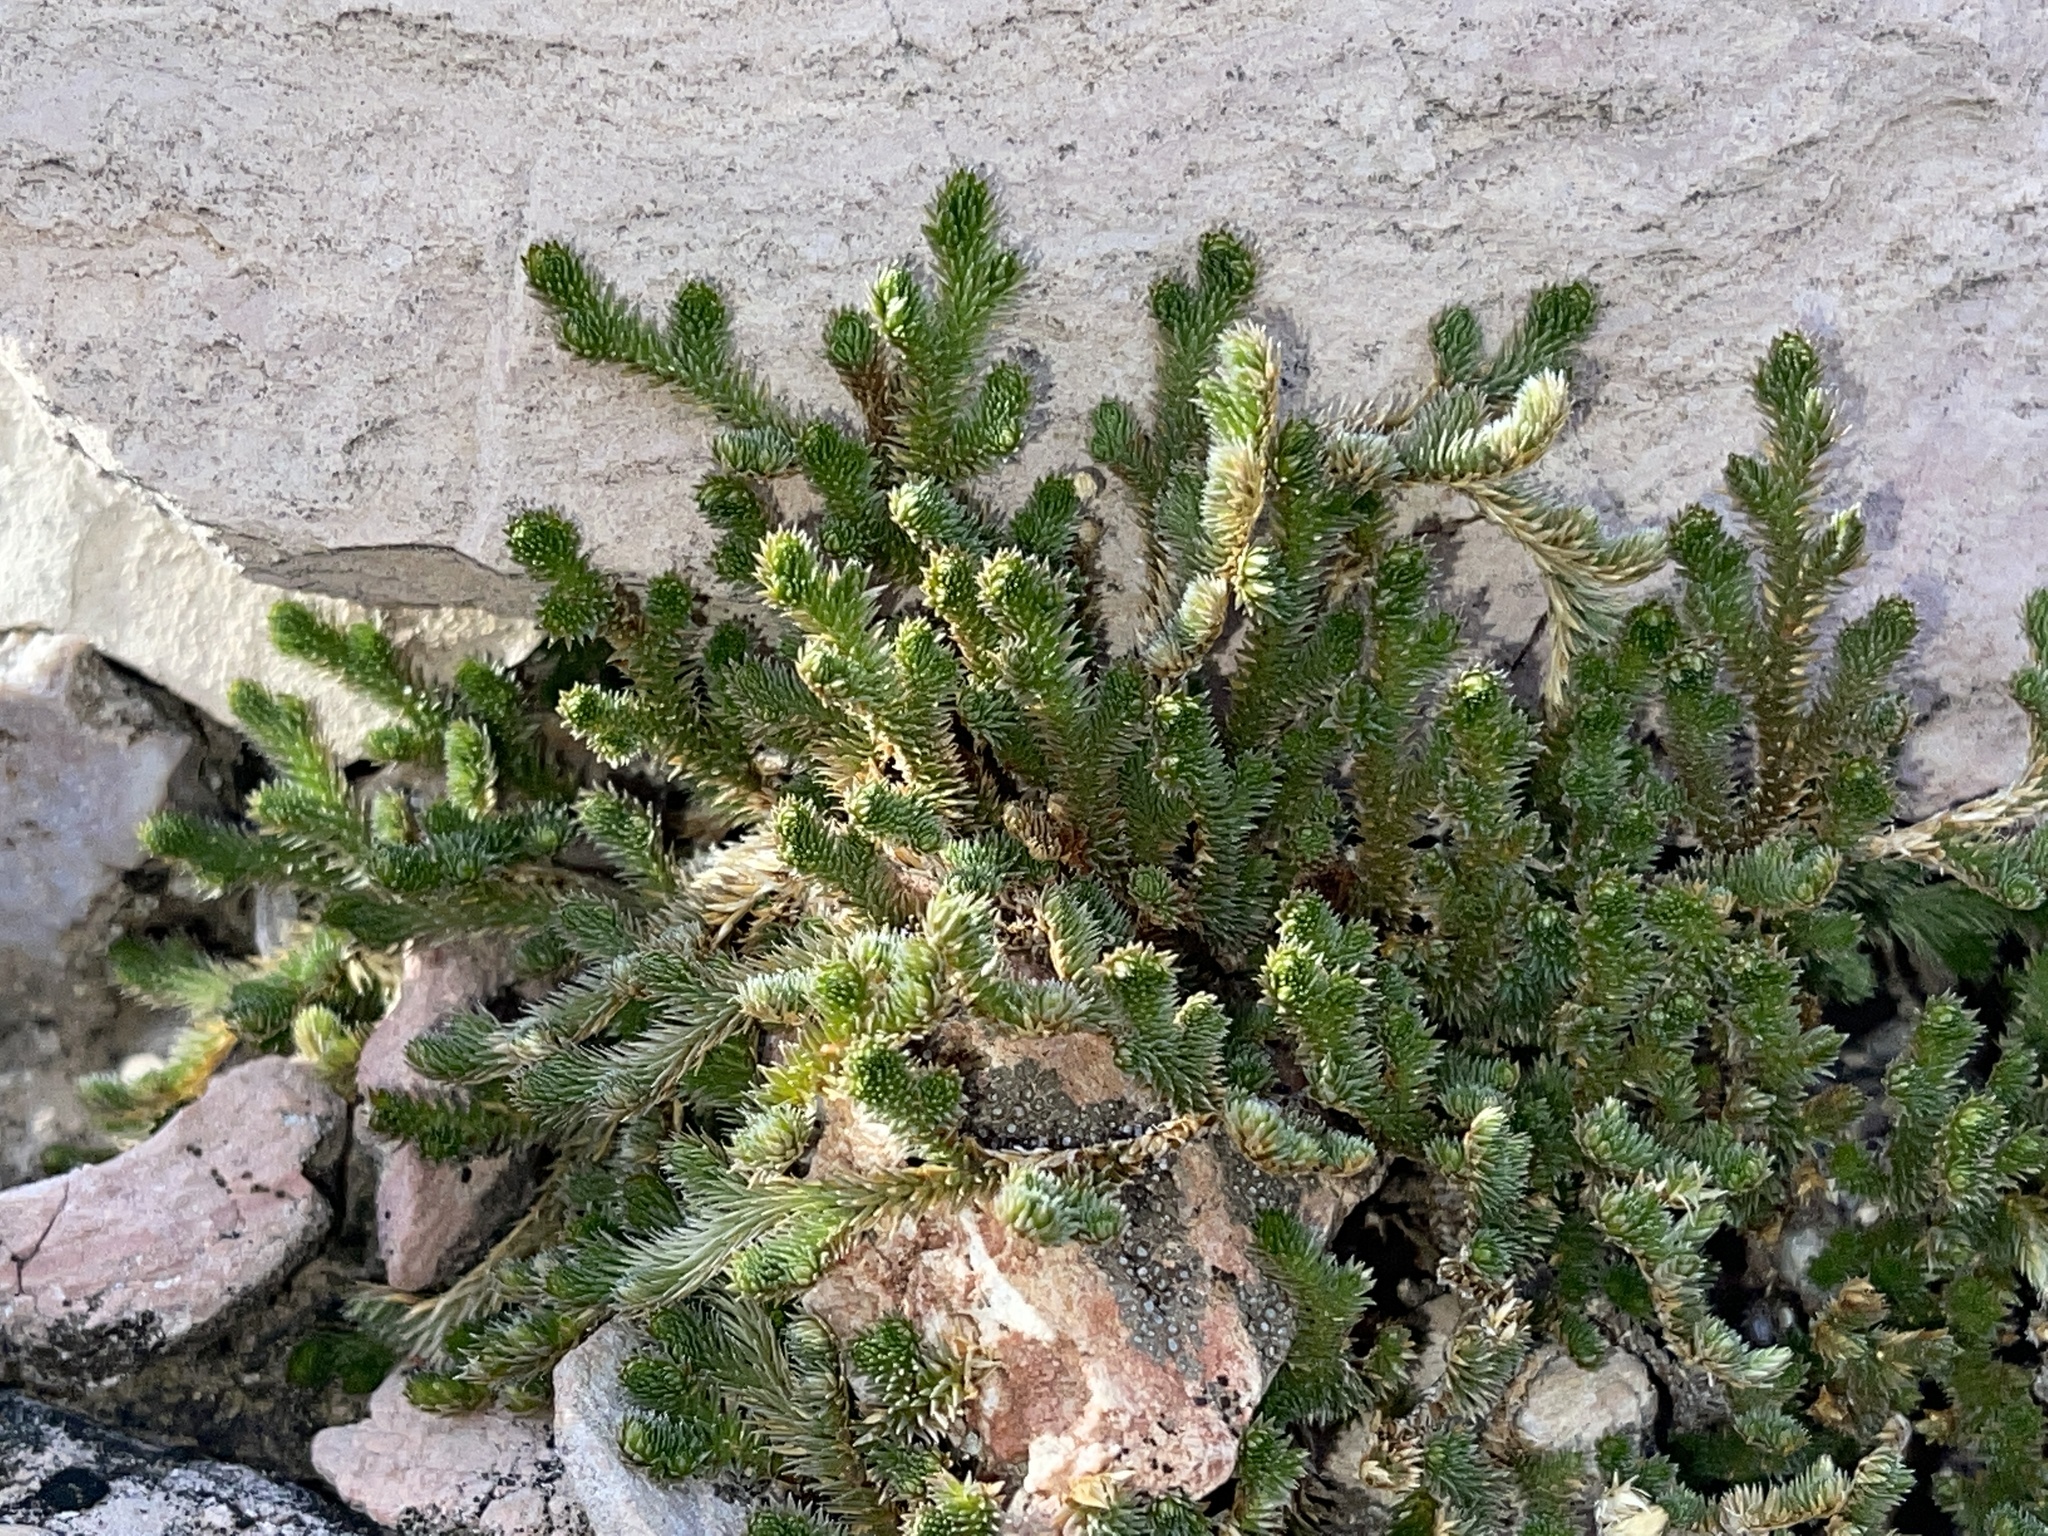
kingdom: Plantae
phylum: Tracheophyta
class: Lycopodiopsida
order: Selaginellales
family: Selaginellaceae
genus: Selaginella
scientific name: Selaginella arizonica
